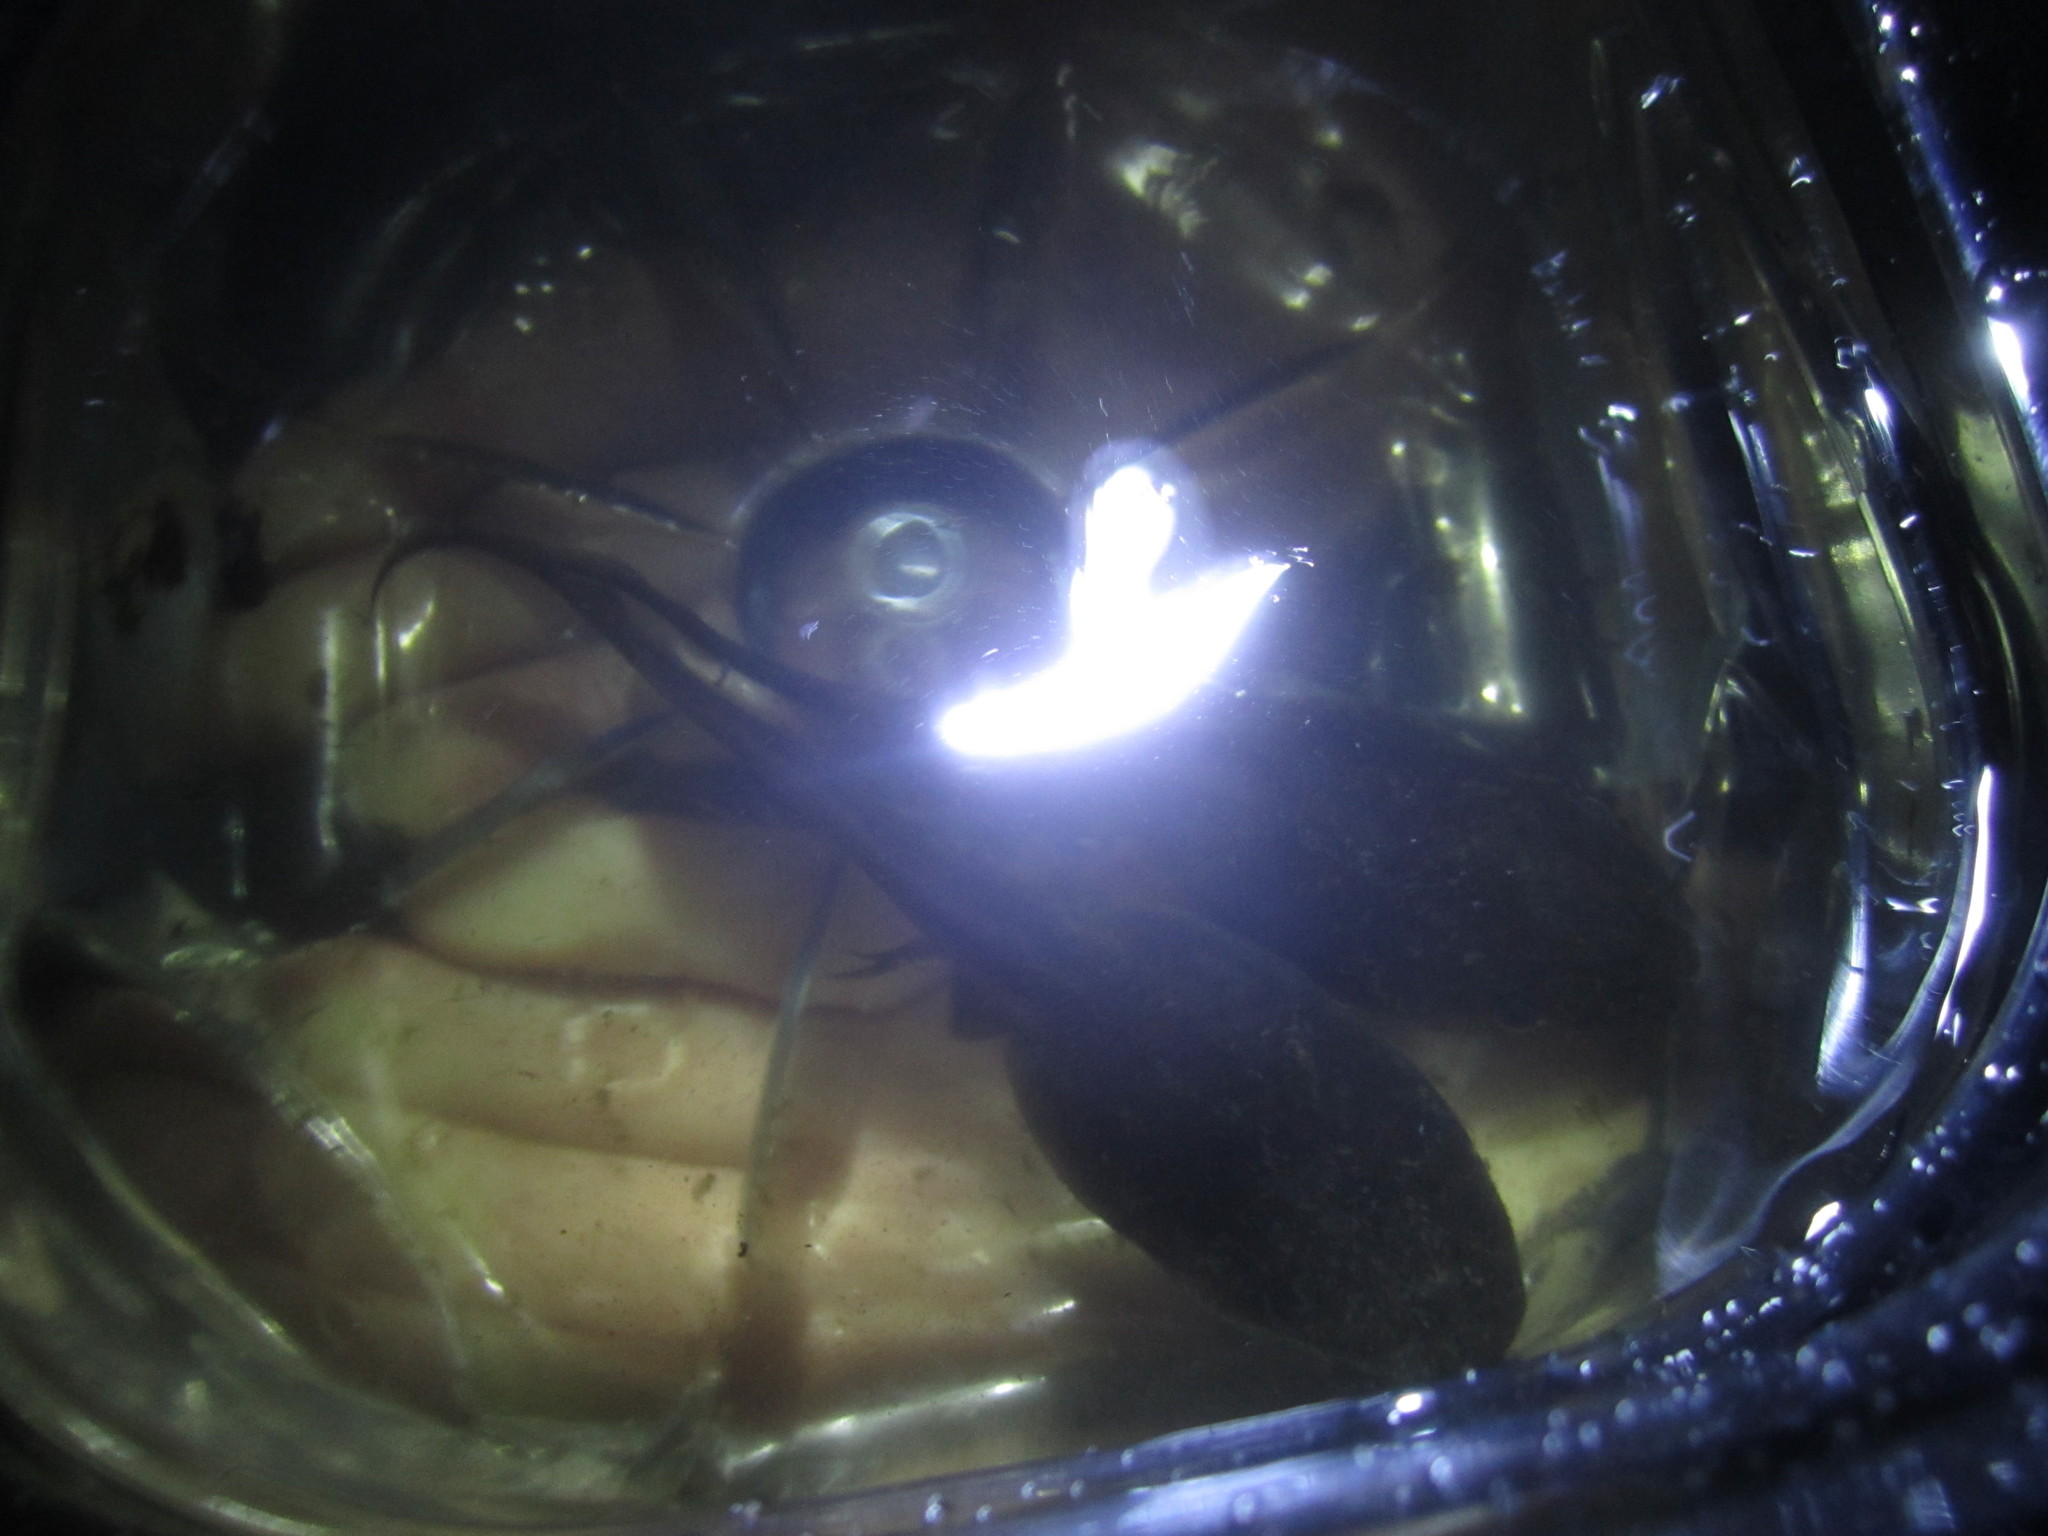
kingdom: Animalia
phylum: Chordata
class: Amphibia
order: Anura
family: Pelobatidae
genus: Pelobates
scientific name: Pelobates cultripes
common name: Western spadefoot
